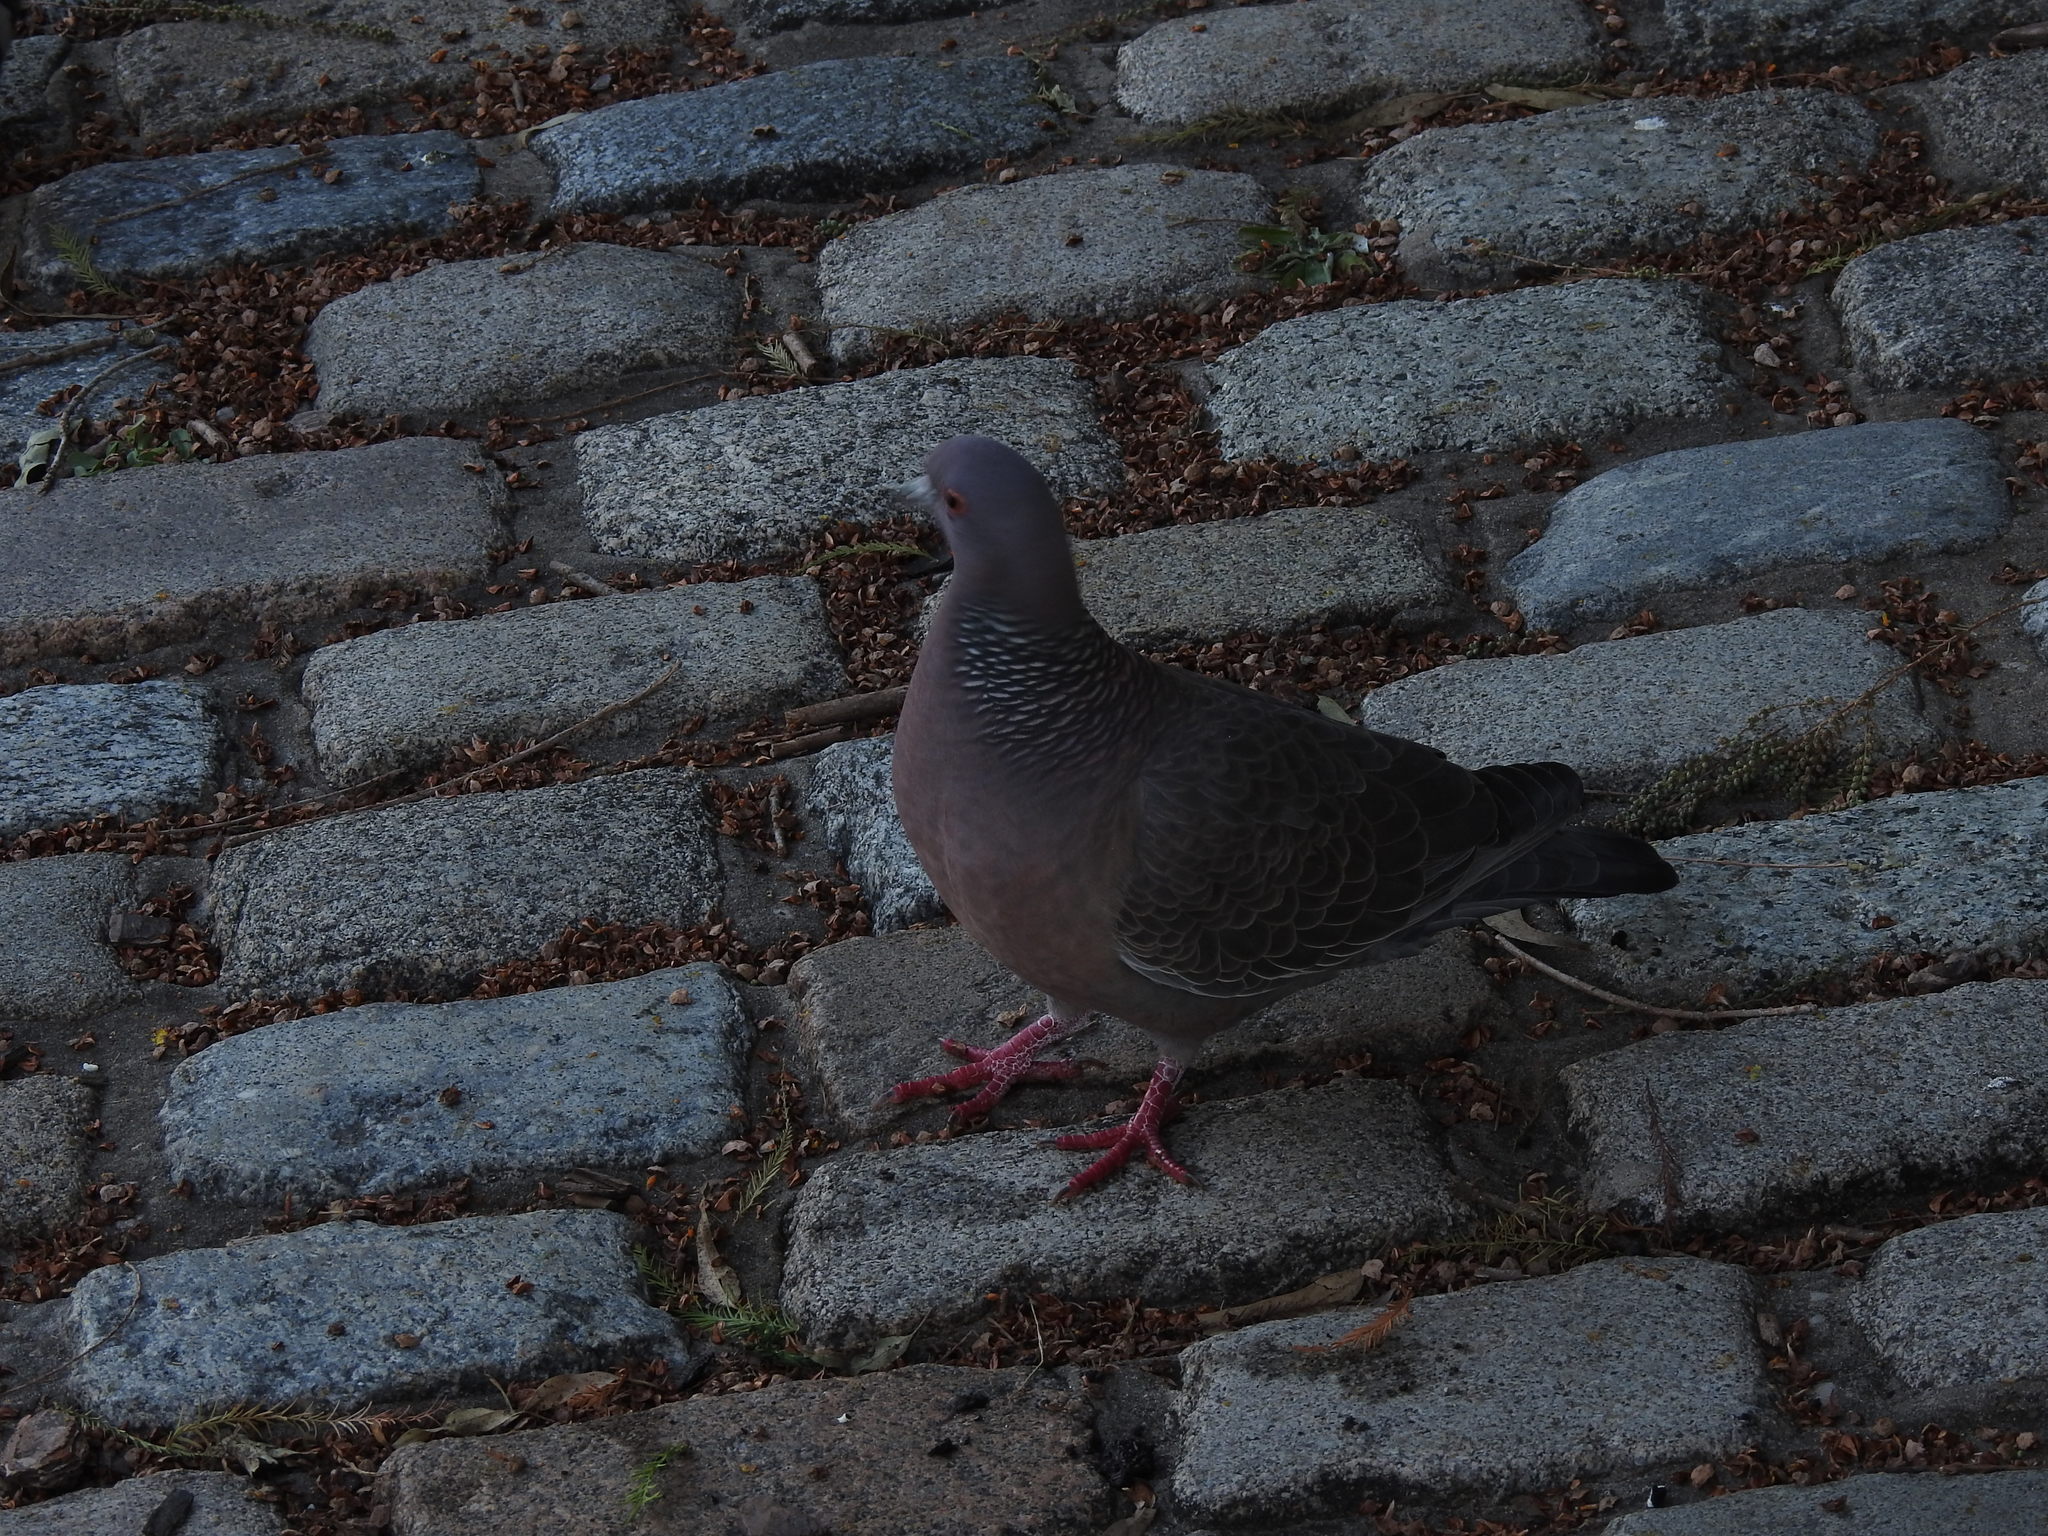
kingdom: Animalia
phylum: Chordata
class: Aves
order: Columbiformes
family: Columbidae
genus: Patagioenas
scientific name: Patagioenas picazuro
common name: Picazuro pigeon
